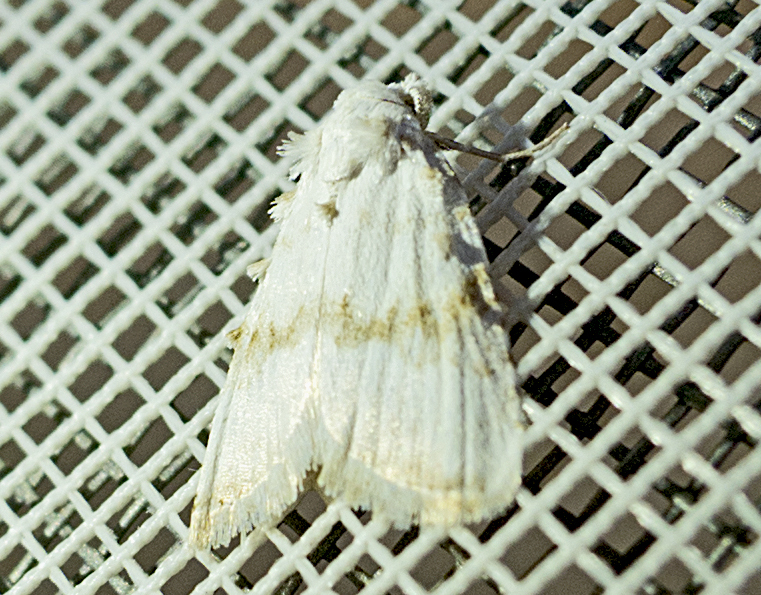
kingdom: Animalia
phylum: Arthropoda
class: Insecta
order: Lepidoptera
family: Nolidae
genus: Nola
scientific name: Nola aerugula
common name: Scarce black arches
